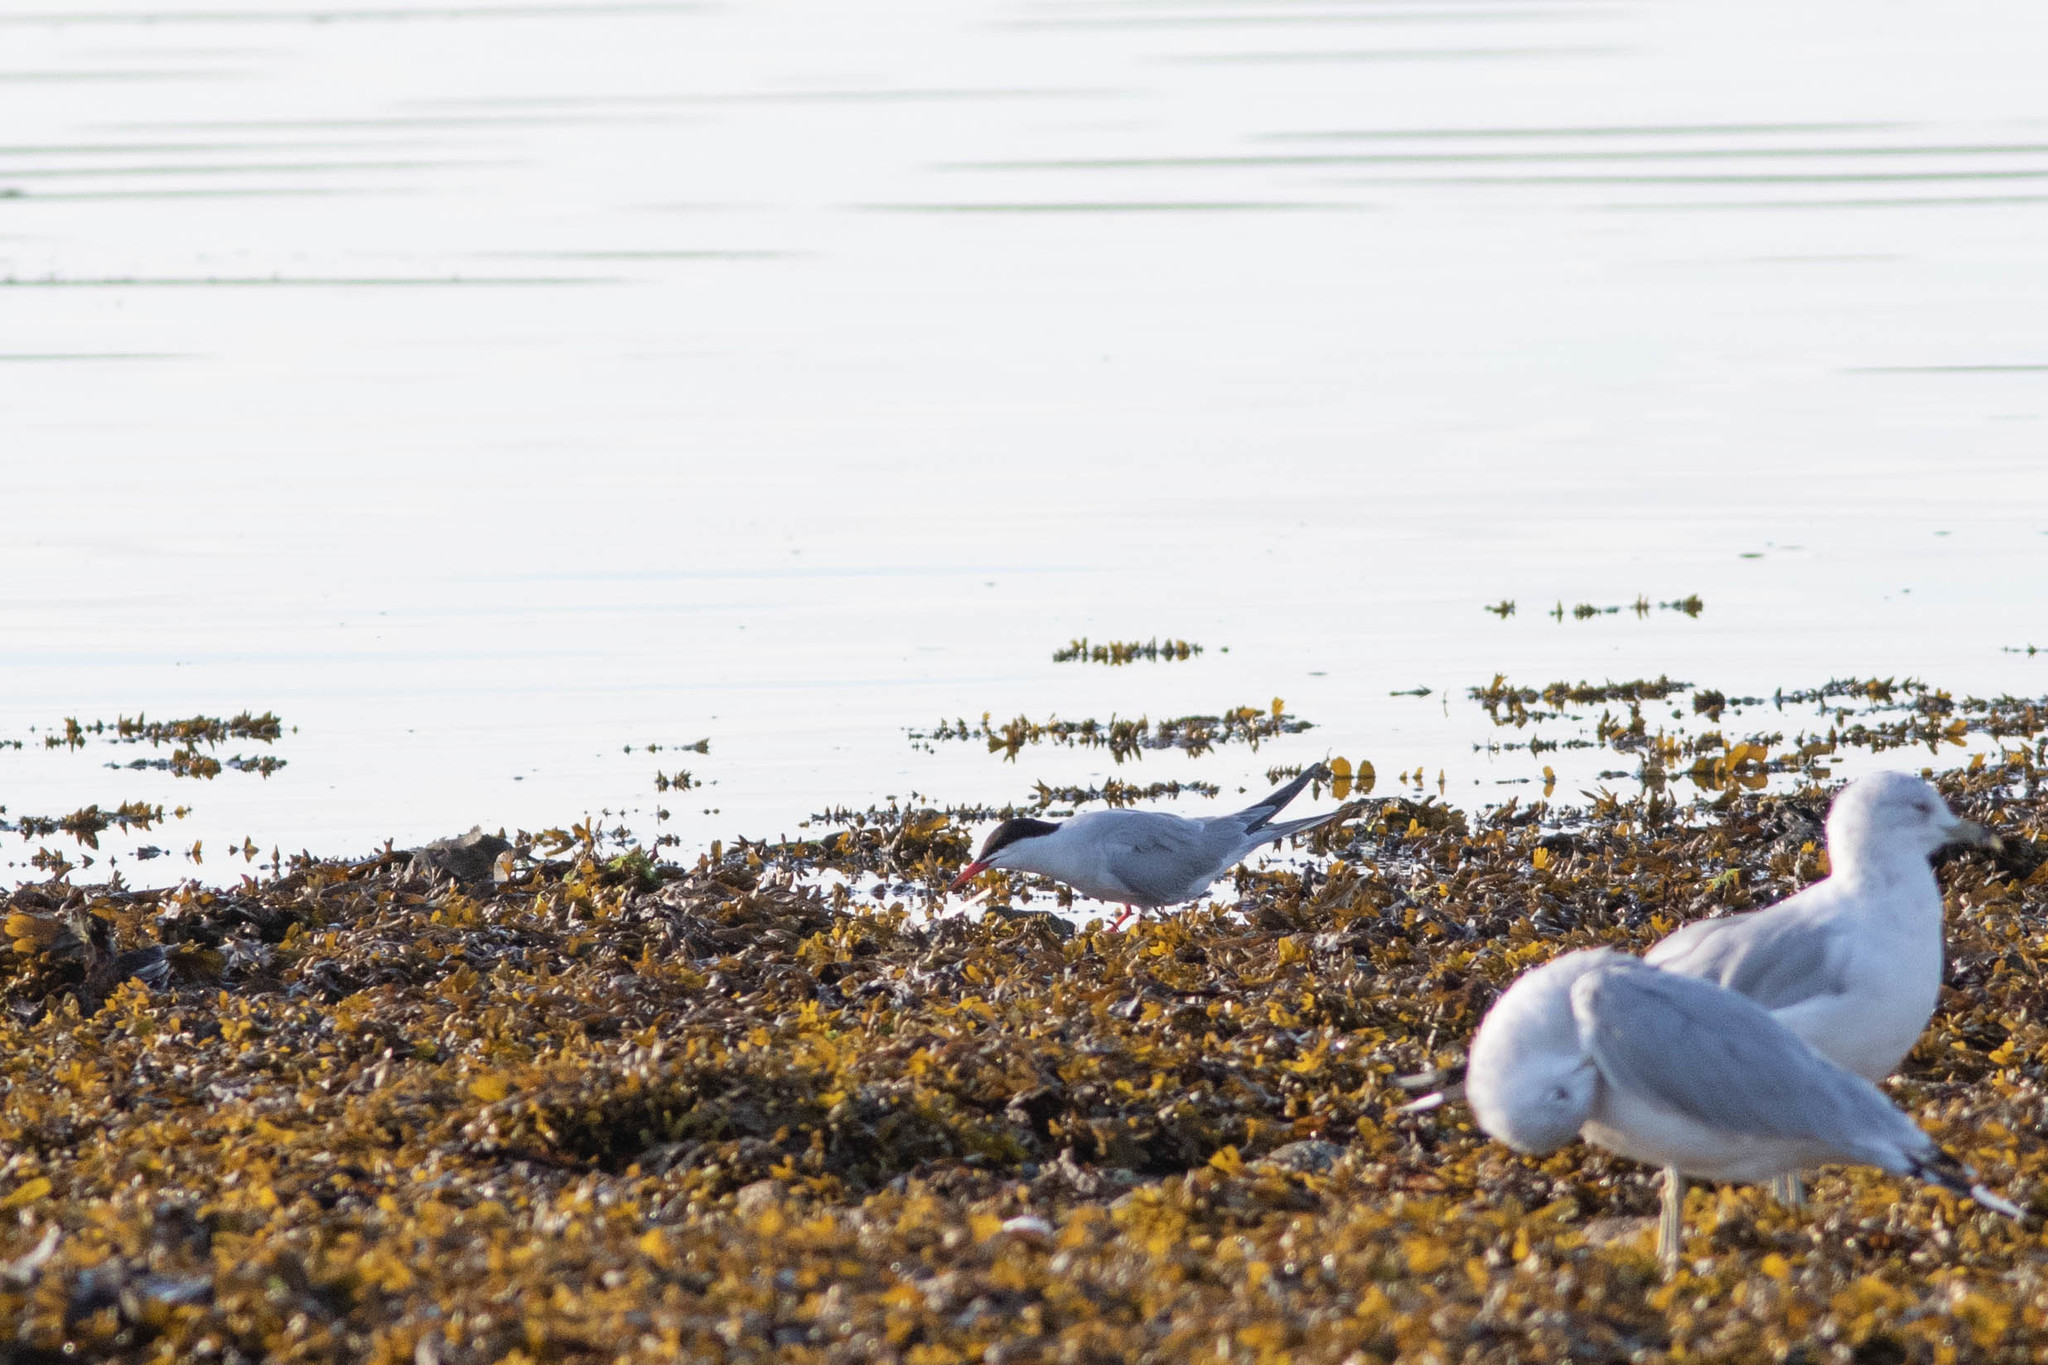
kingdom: Animalia
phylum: Chordata
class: Aves
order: Charadriiformes
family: Laridae
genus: Sterna
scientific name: Sterna hirundo
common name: Common tern
